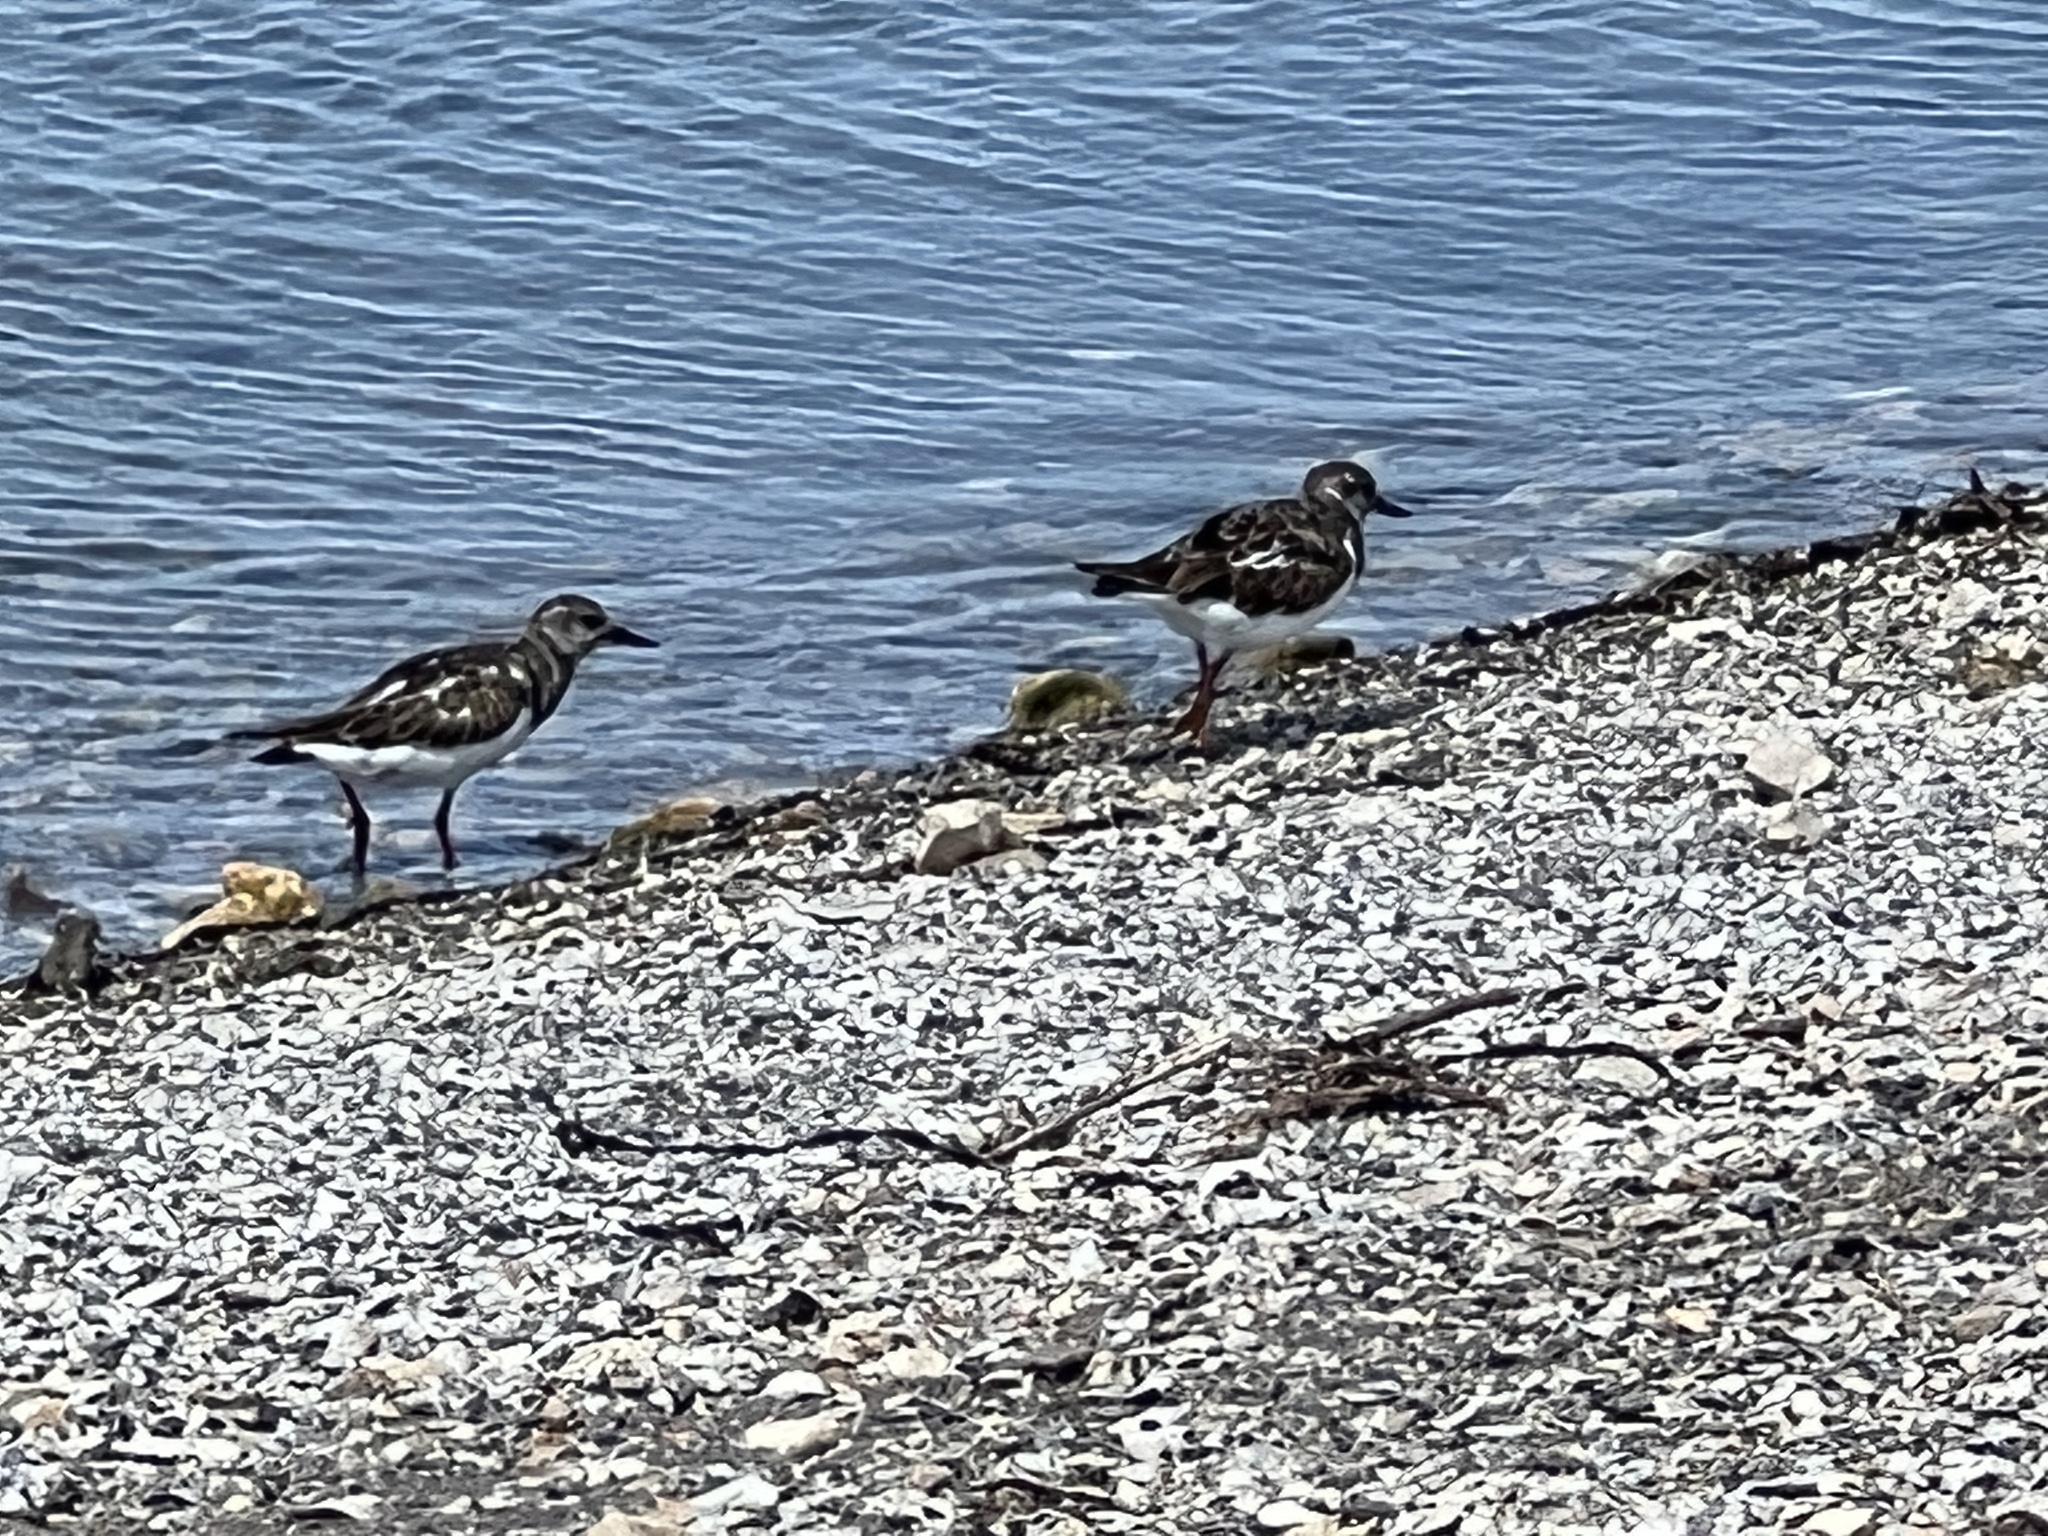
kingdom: Animalia
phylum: Chordata
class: Aves
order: Charadriiformes
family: Scolopacidae
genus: Arenaria
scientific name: Arenaria interpres
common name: Ruddy turnstone
